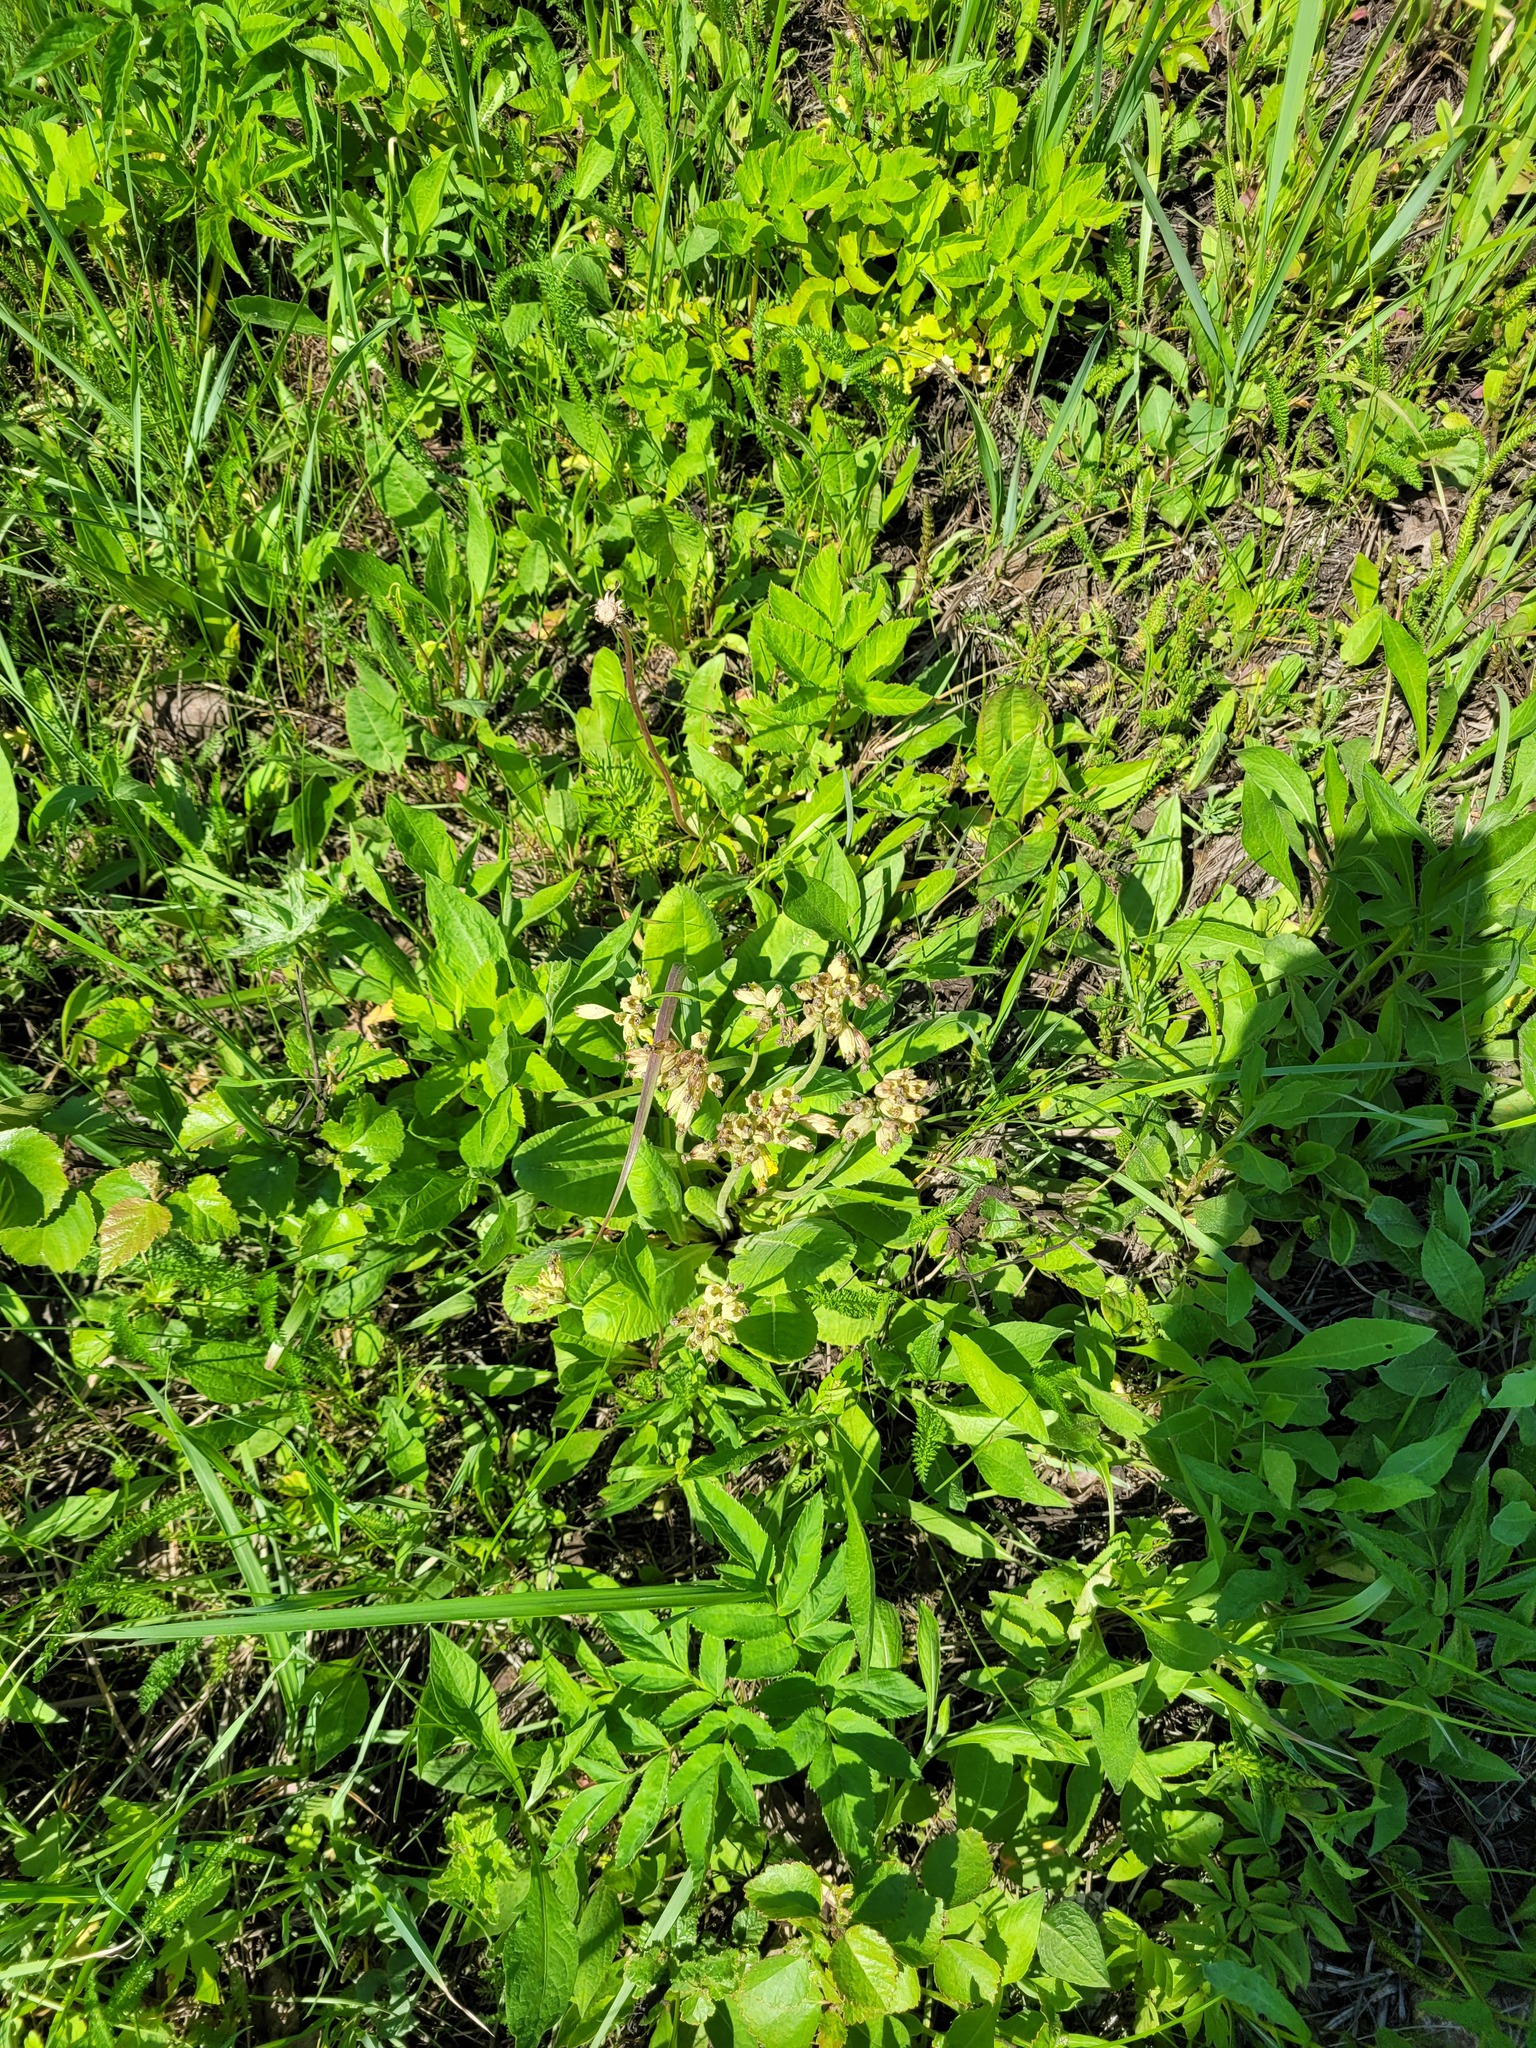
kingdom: Plantae
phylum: Tracheophyta
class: Magnoliopsida
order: Ericales
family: Primulaceae
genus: Primula
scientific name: Primula veris
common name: Cowslip
